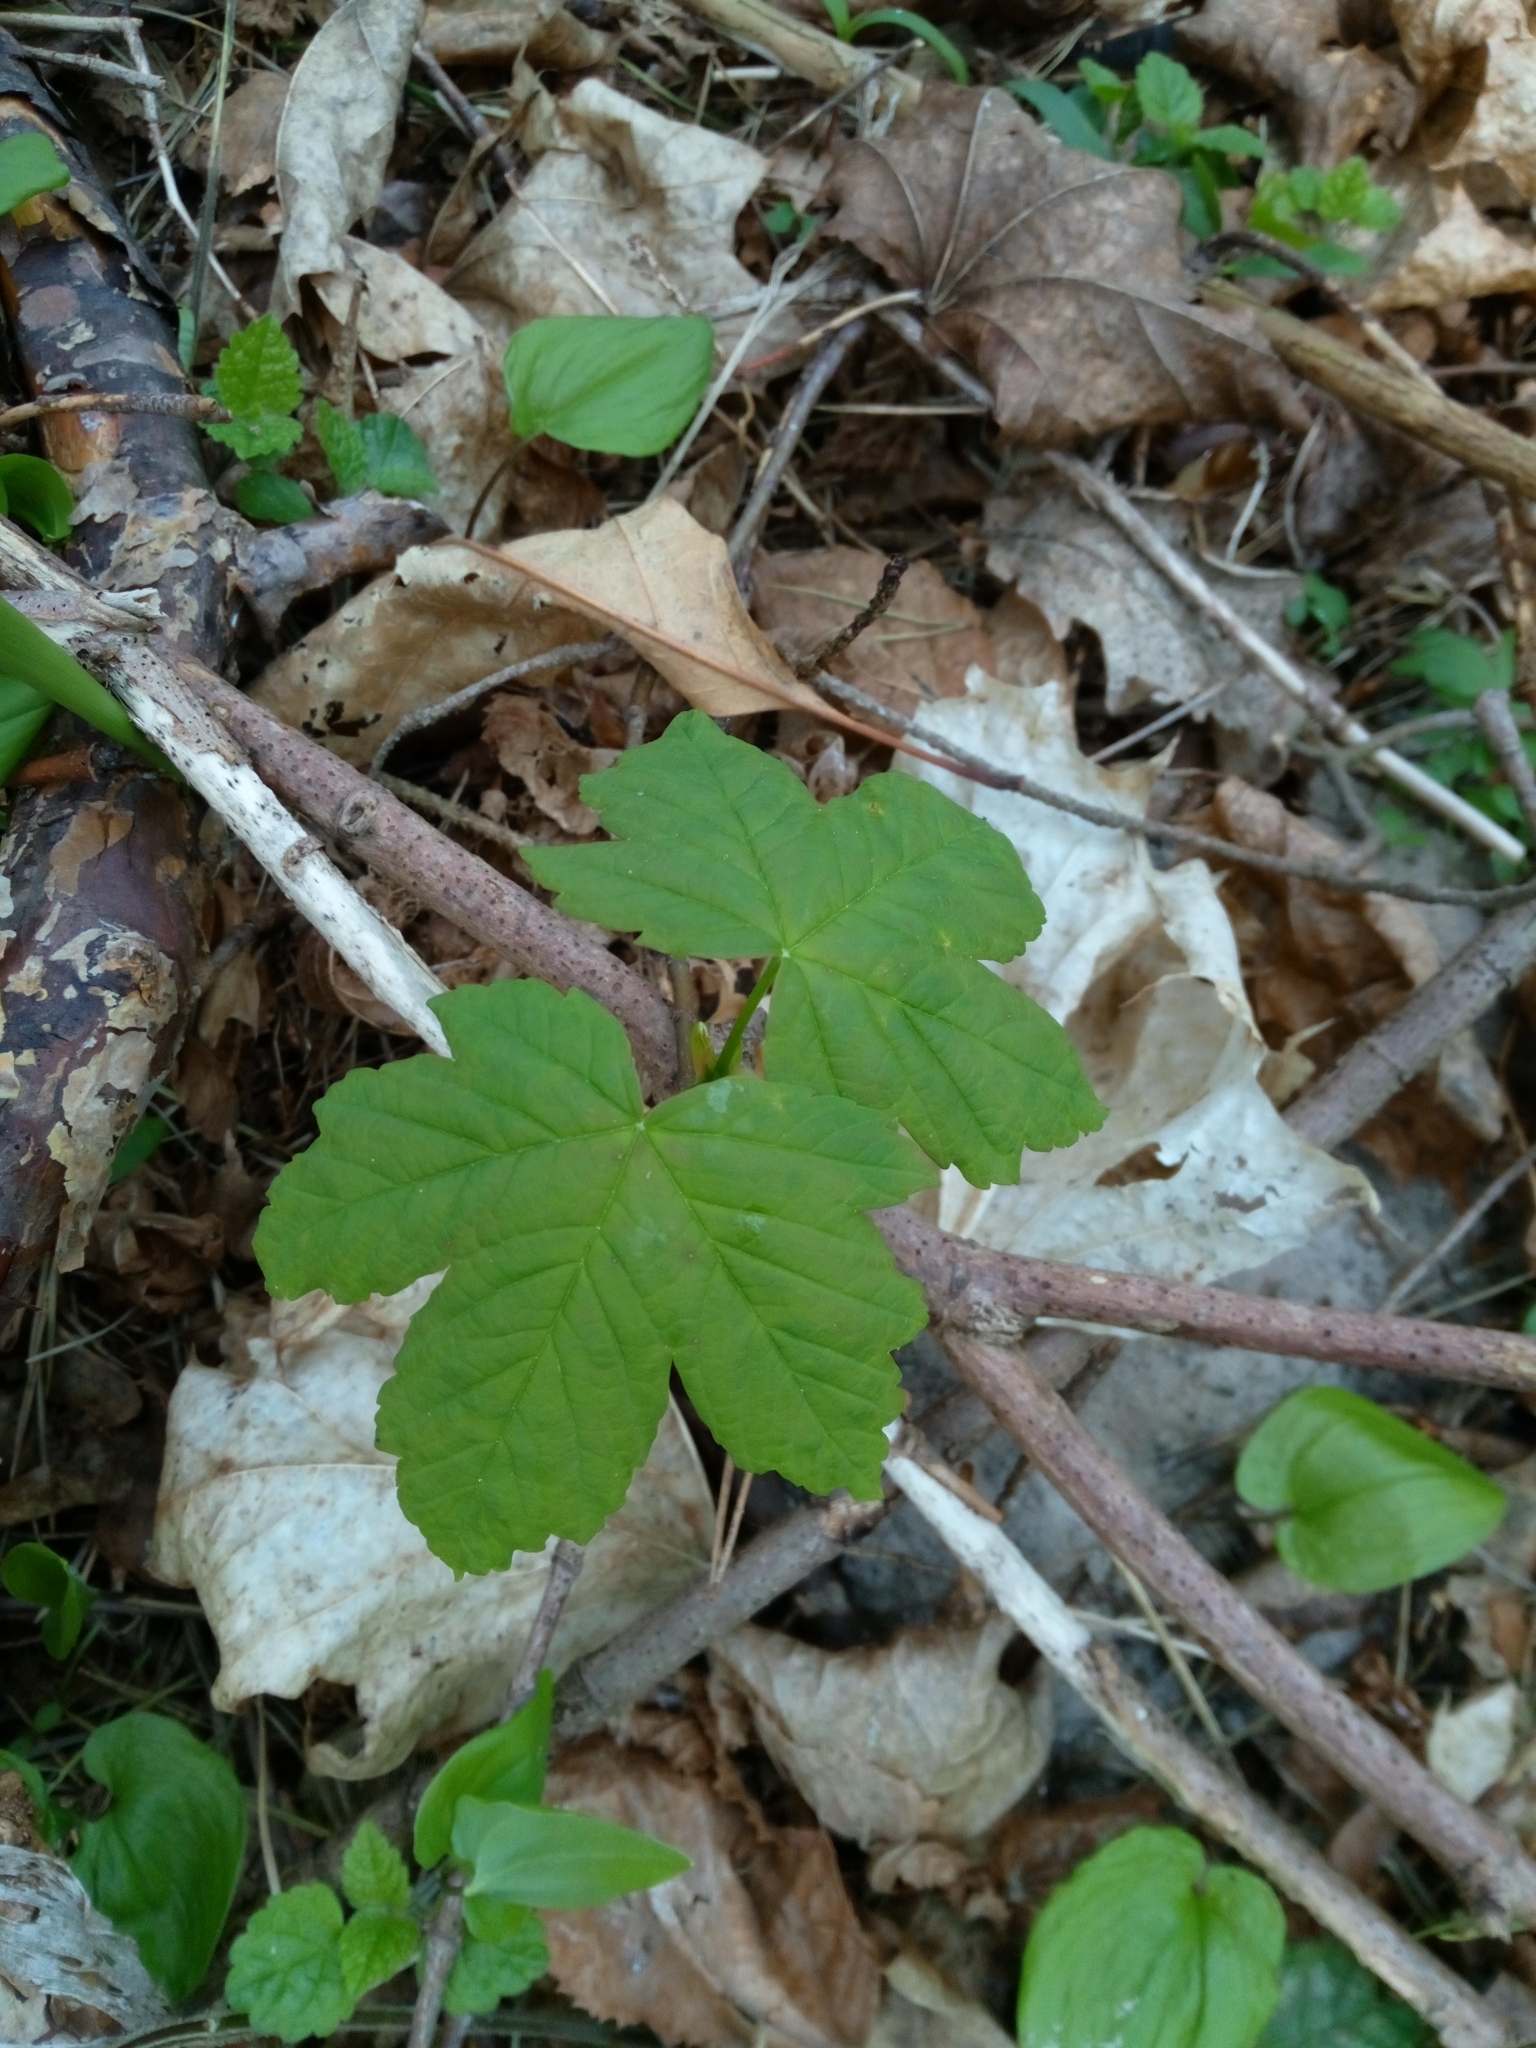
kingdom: Plantae
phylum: Tracheophyta
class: Magnoliopsida
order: Sapindales
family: Sapindaceae
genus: Acer
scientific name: Acer pseudoplatanus
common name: Sycamore
